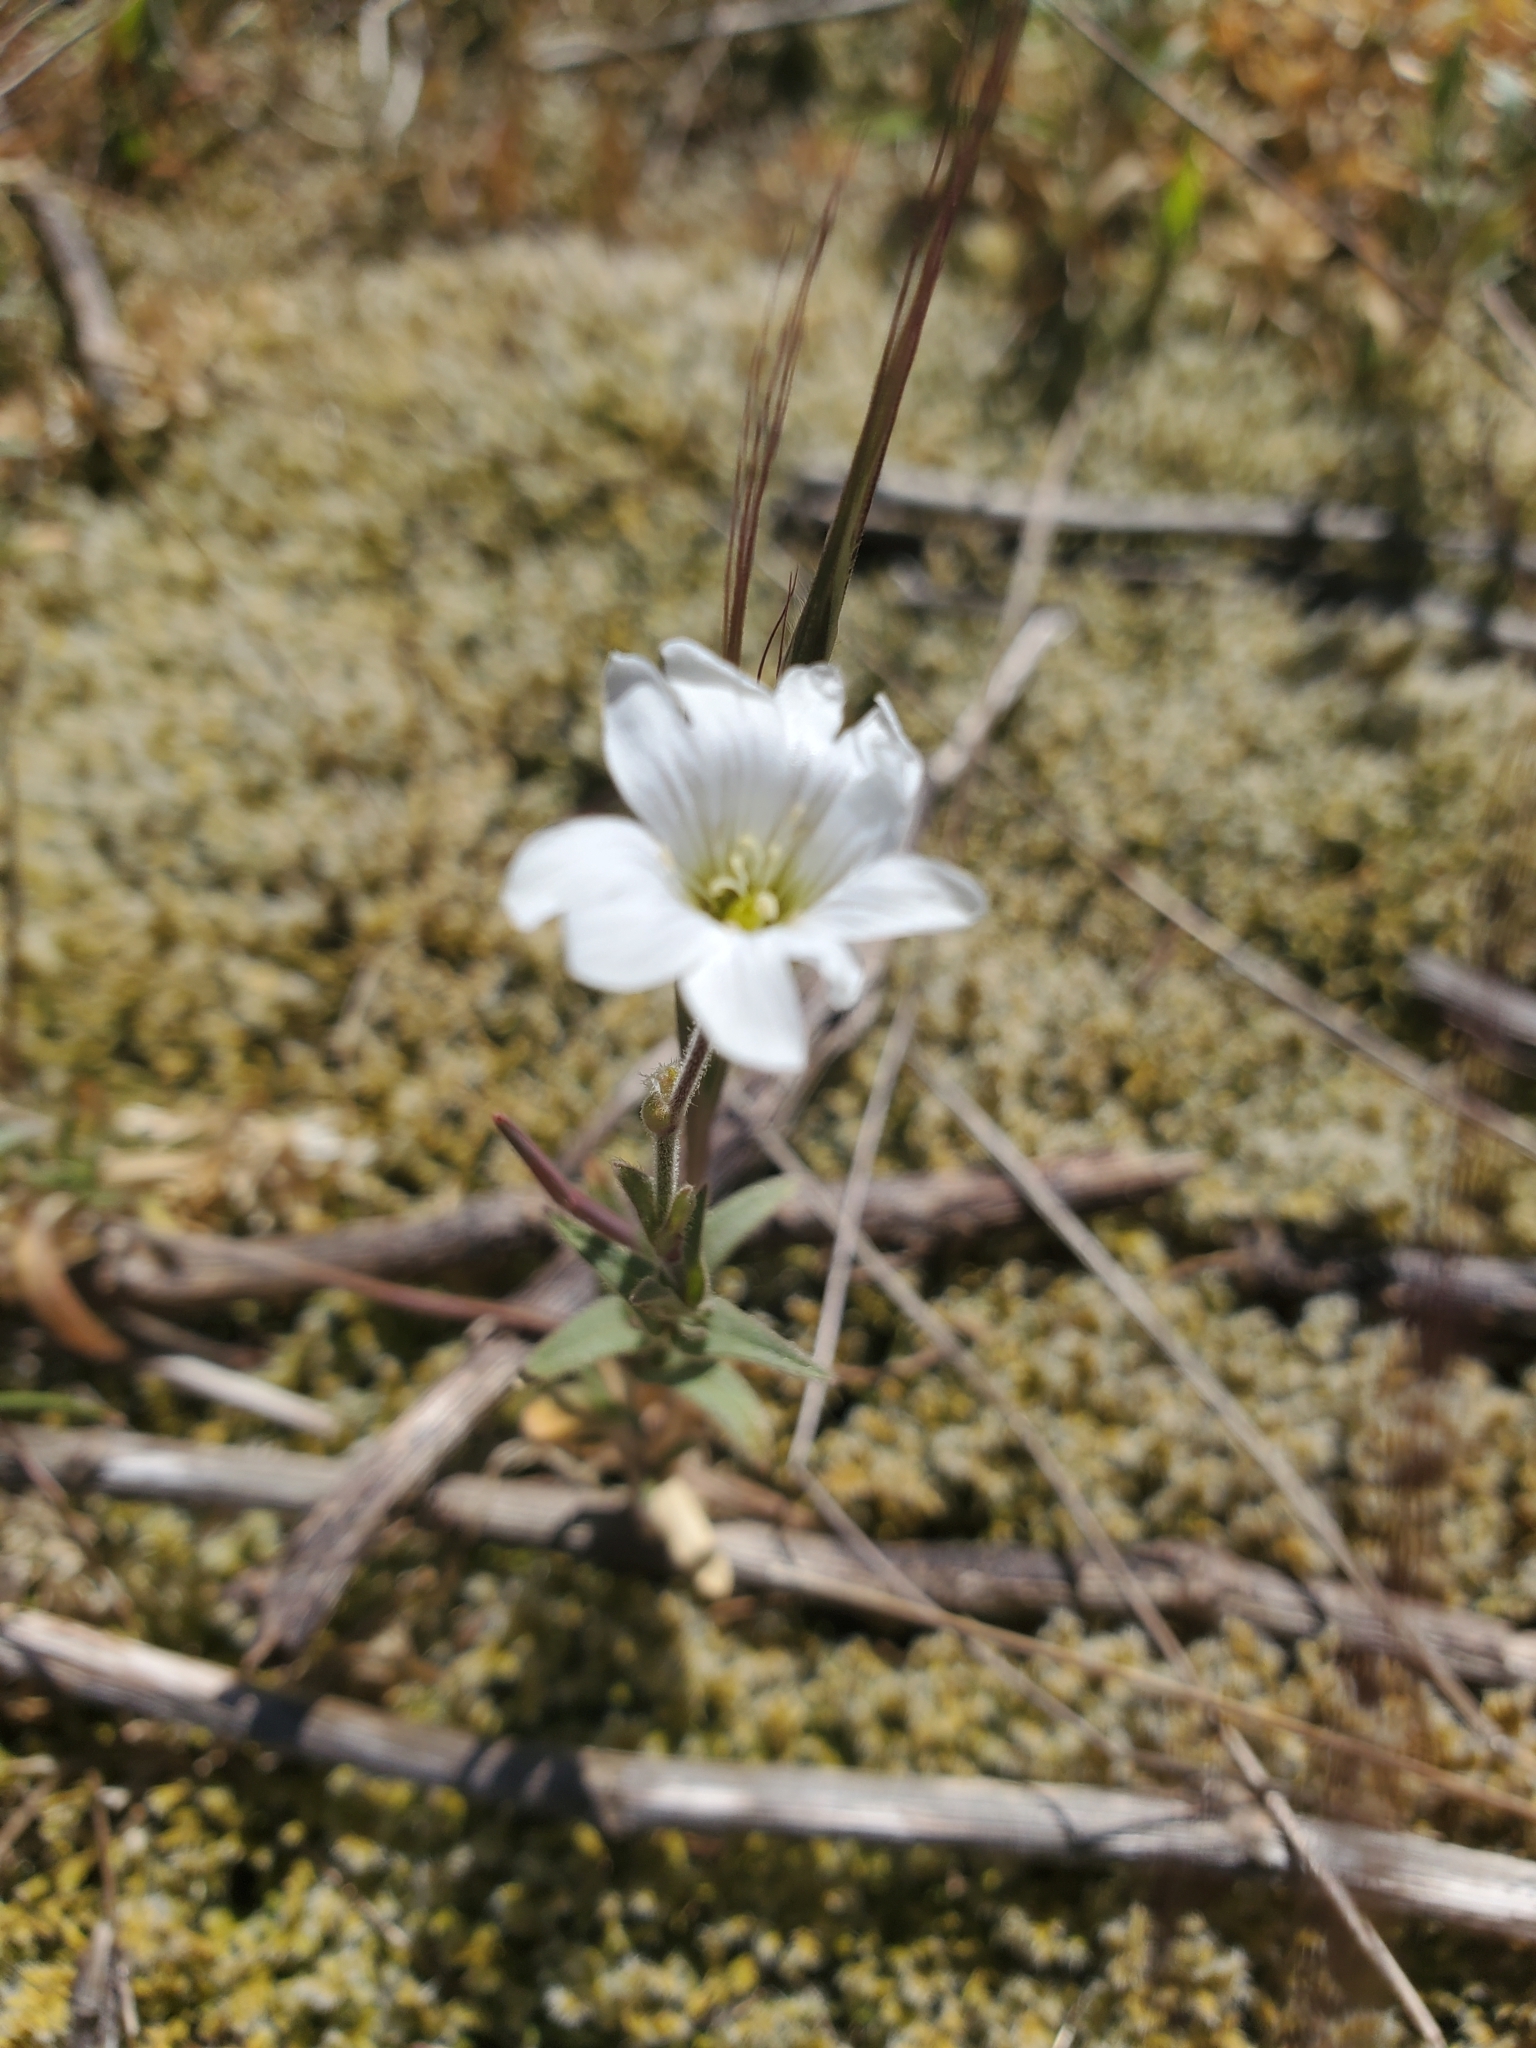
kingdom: Plantae
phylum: Tracheophyta
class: Magnoliopsida
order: Caryophyllales
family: Caryophyllaceae
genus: Cerastium
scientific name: Cerastium arvense
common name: Field mouse-ear
